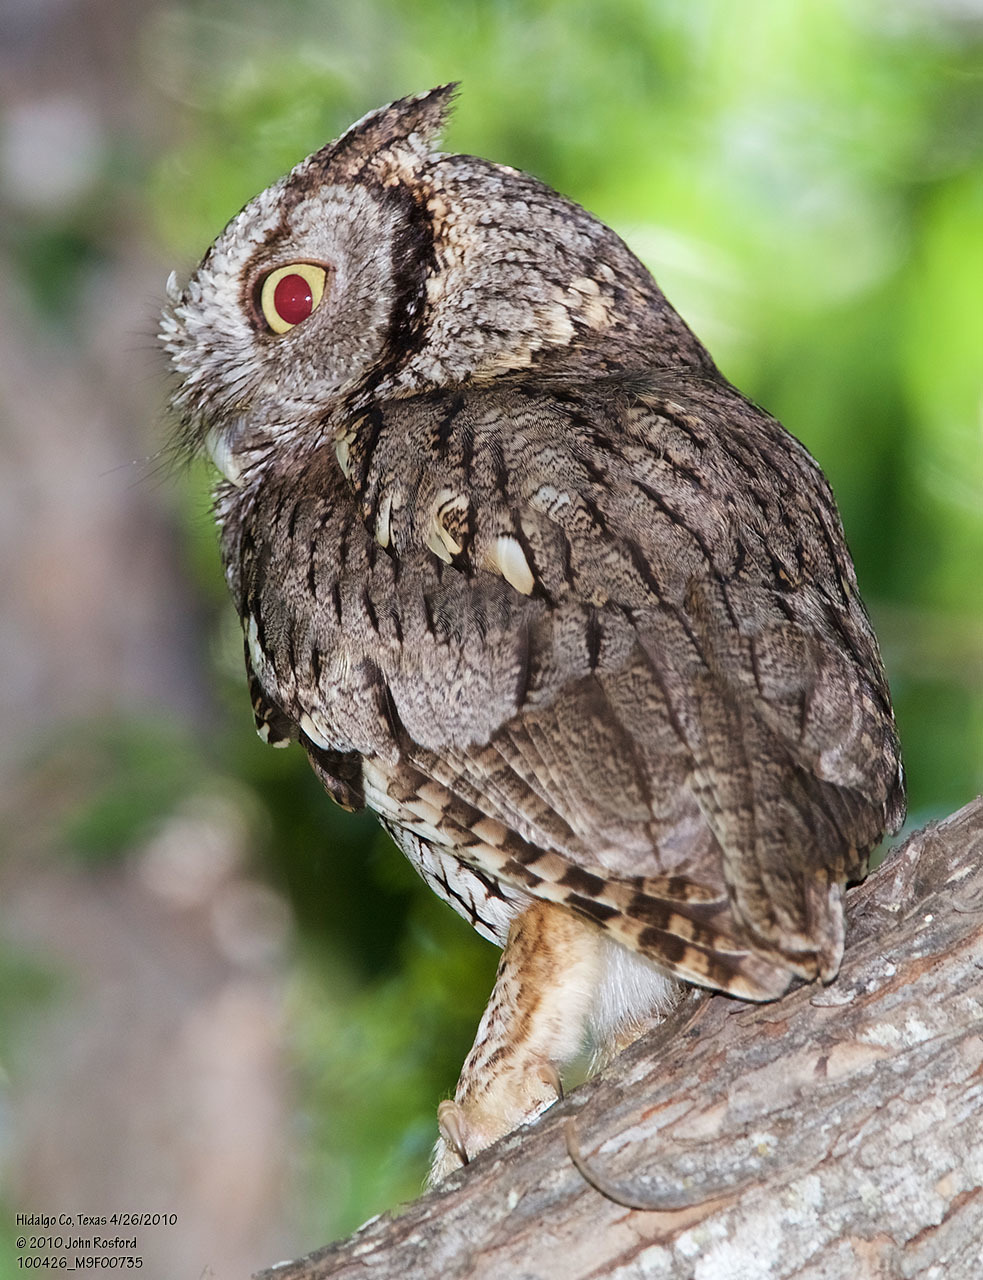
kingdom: Animalia
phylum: Chordata
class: Aves
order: Strigiformes
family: Strigidae
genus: Megascops
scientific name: Megascops asio
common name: Eastern screech-owl
